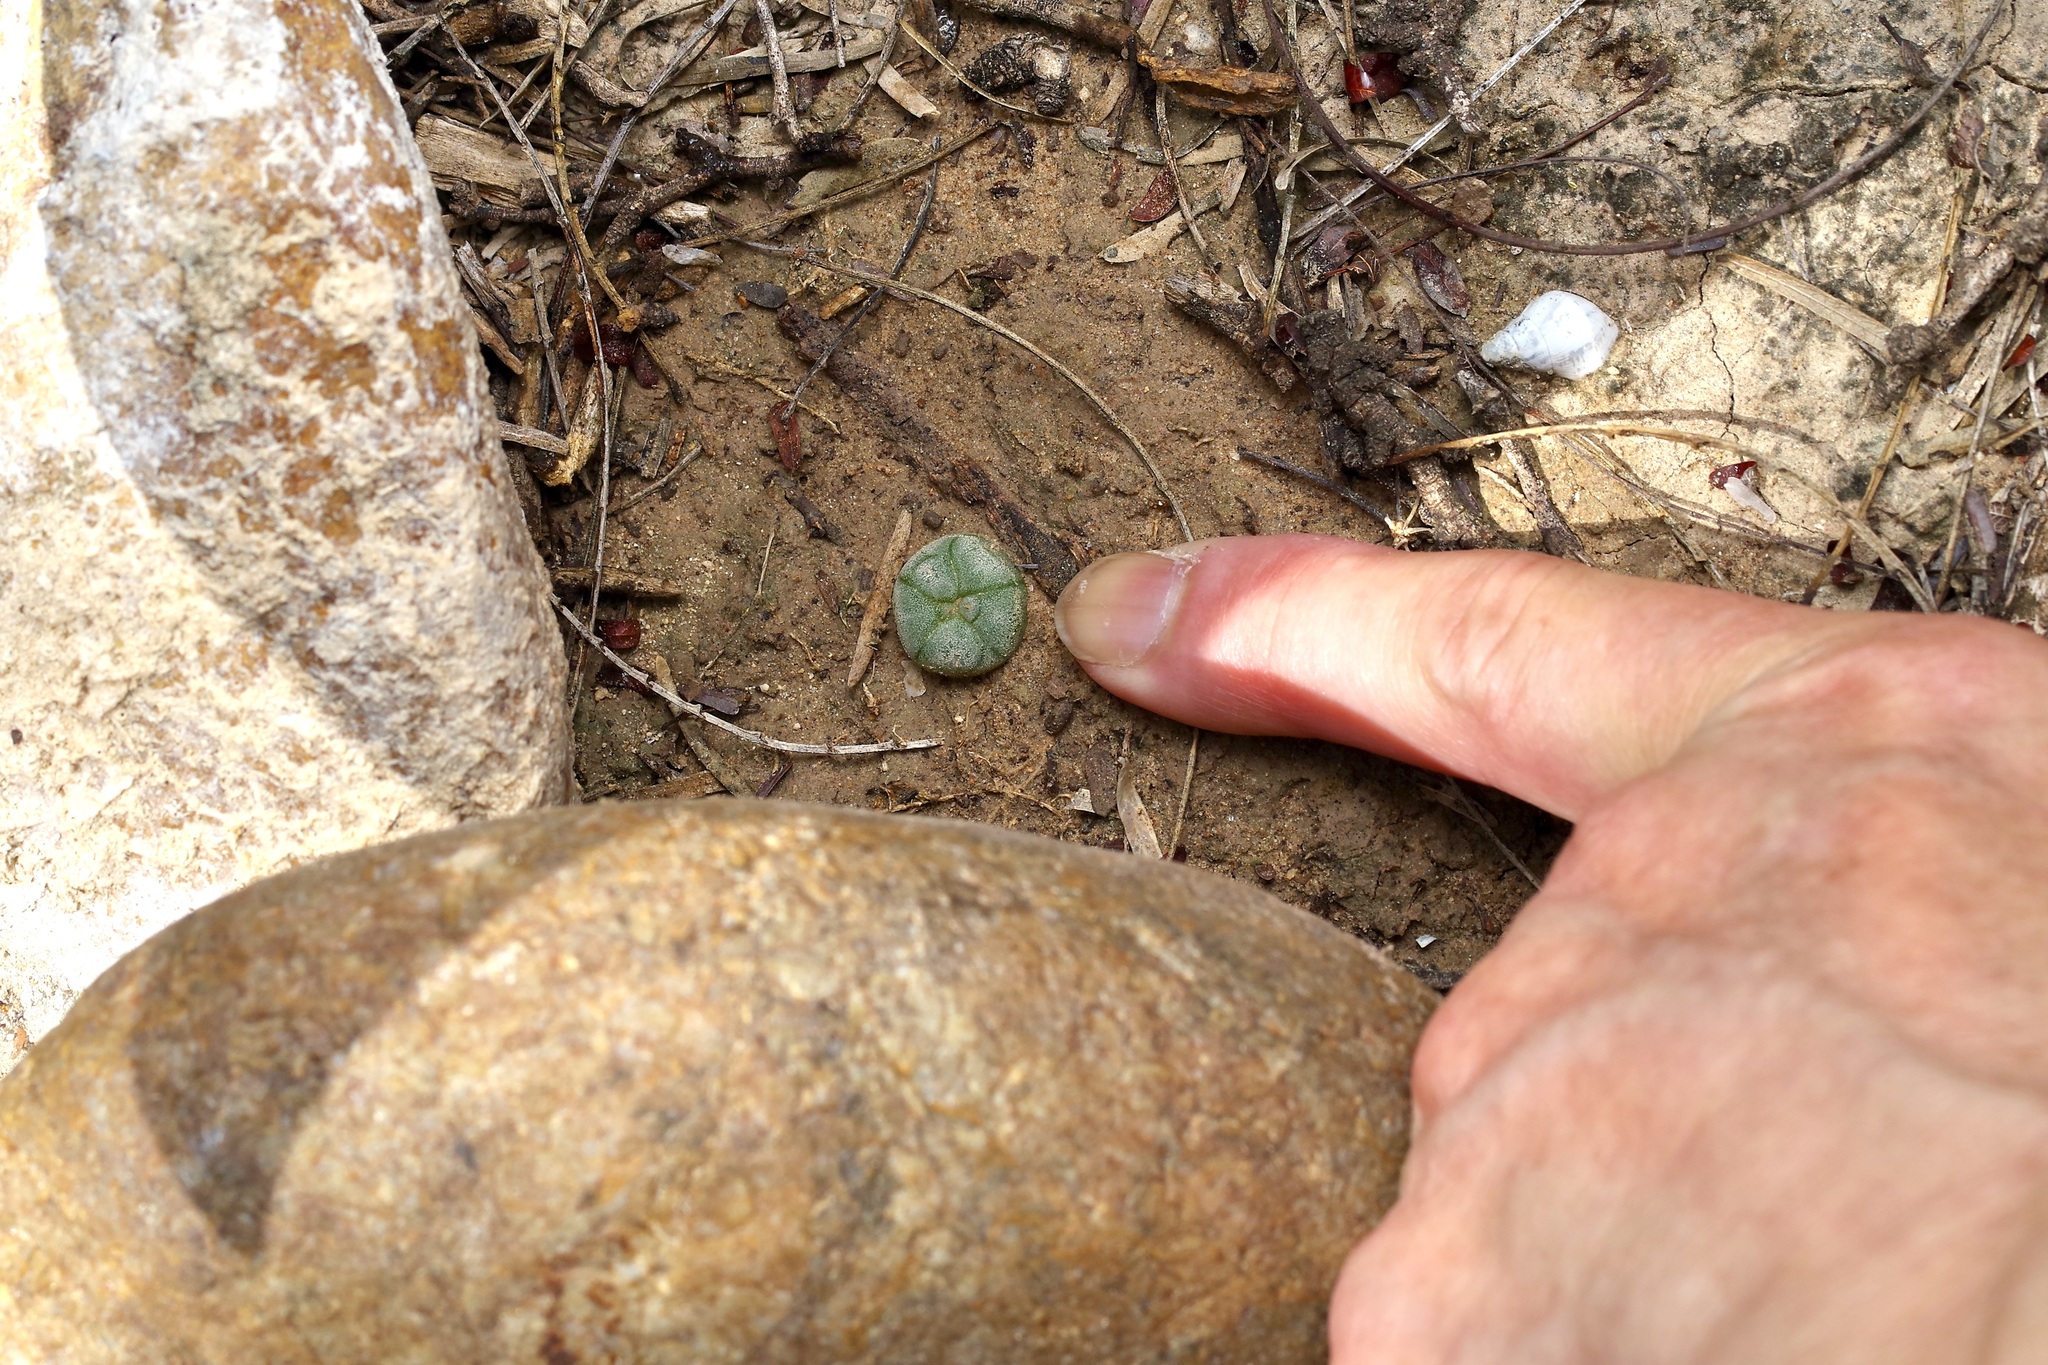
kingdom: Plantae
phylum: Tracheophyta
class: Magnoliopsida
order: Caryophyllales
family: Cactaceae
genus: Lophophora
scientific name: Lophophora williamsii
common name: Indian-dope
